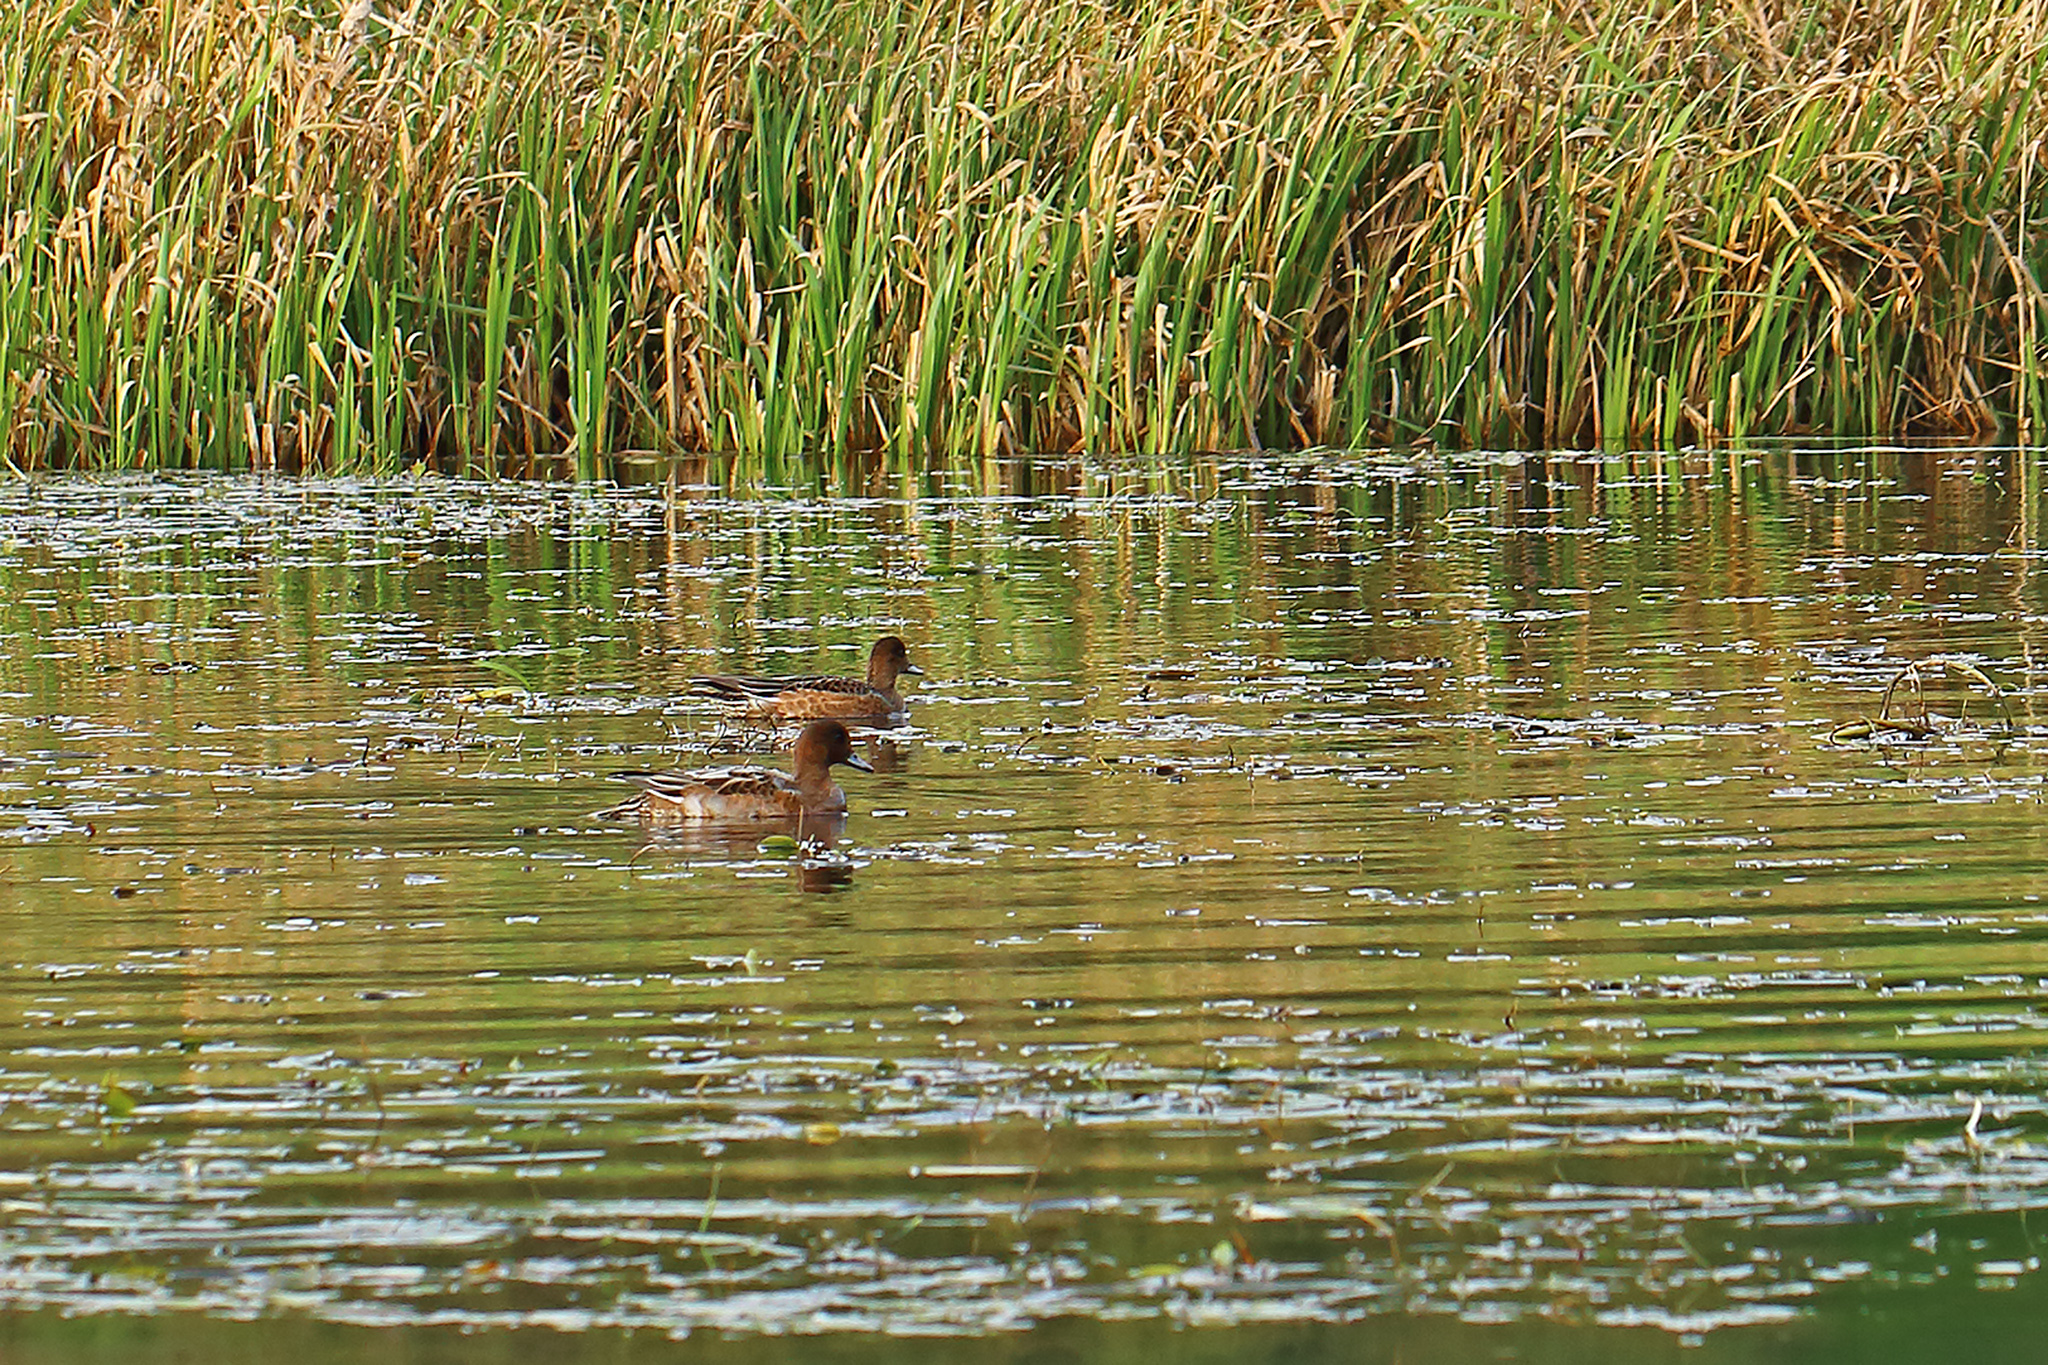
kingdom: Animalia
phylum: Chordata
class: Aves
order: Anseriformes
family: Anatidae
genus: Mareca
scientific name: Mareca penelope
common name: Eurasian wigeon
